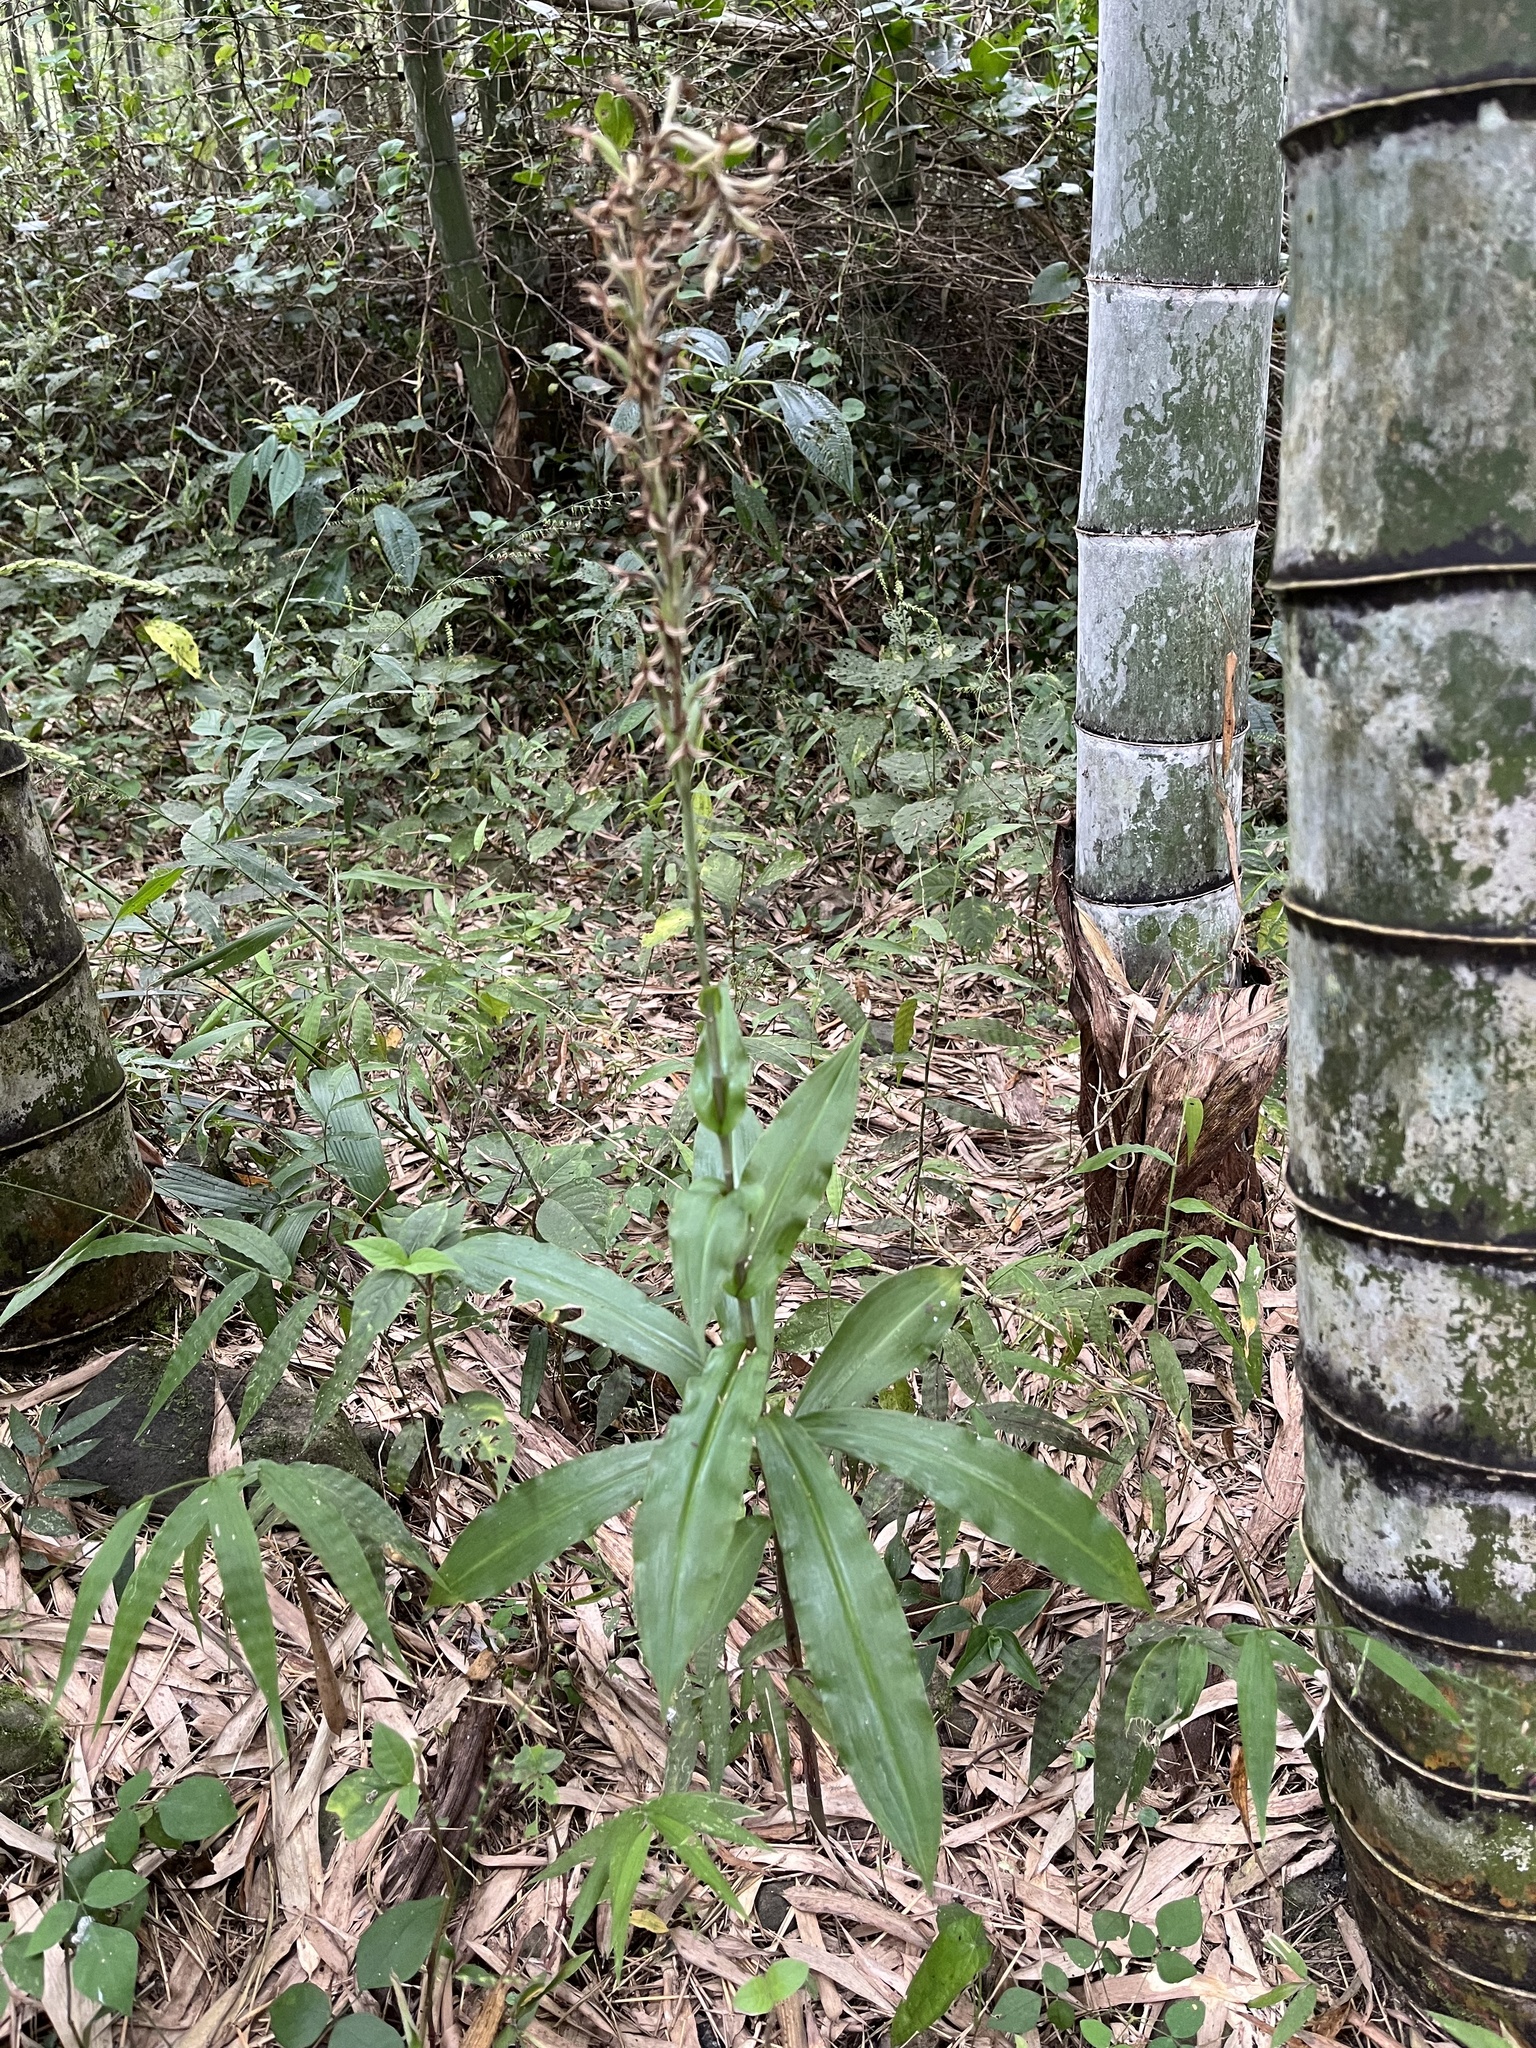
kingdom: Plantae
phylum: Tracheophyta
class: Liliopsida
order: Asparagales
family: Orchidaceae
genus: Habenaria
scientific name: Habenaria stenopetala
